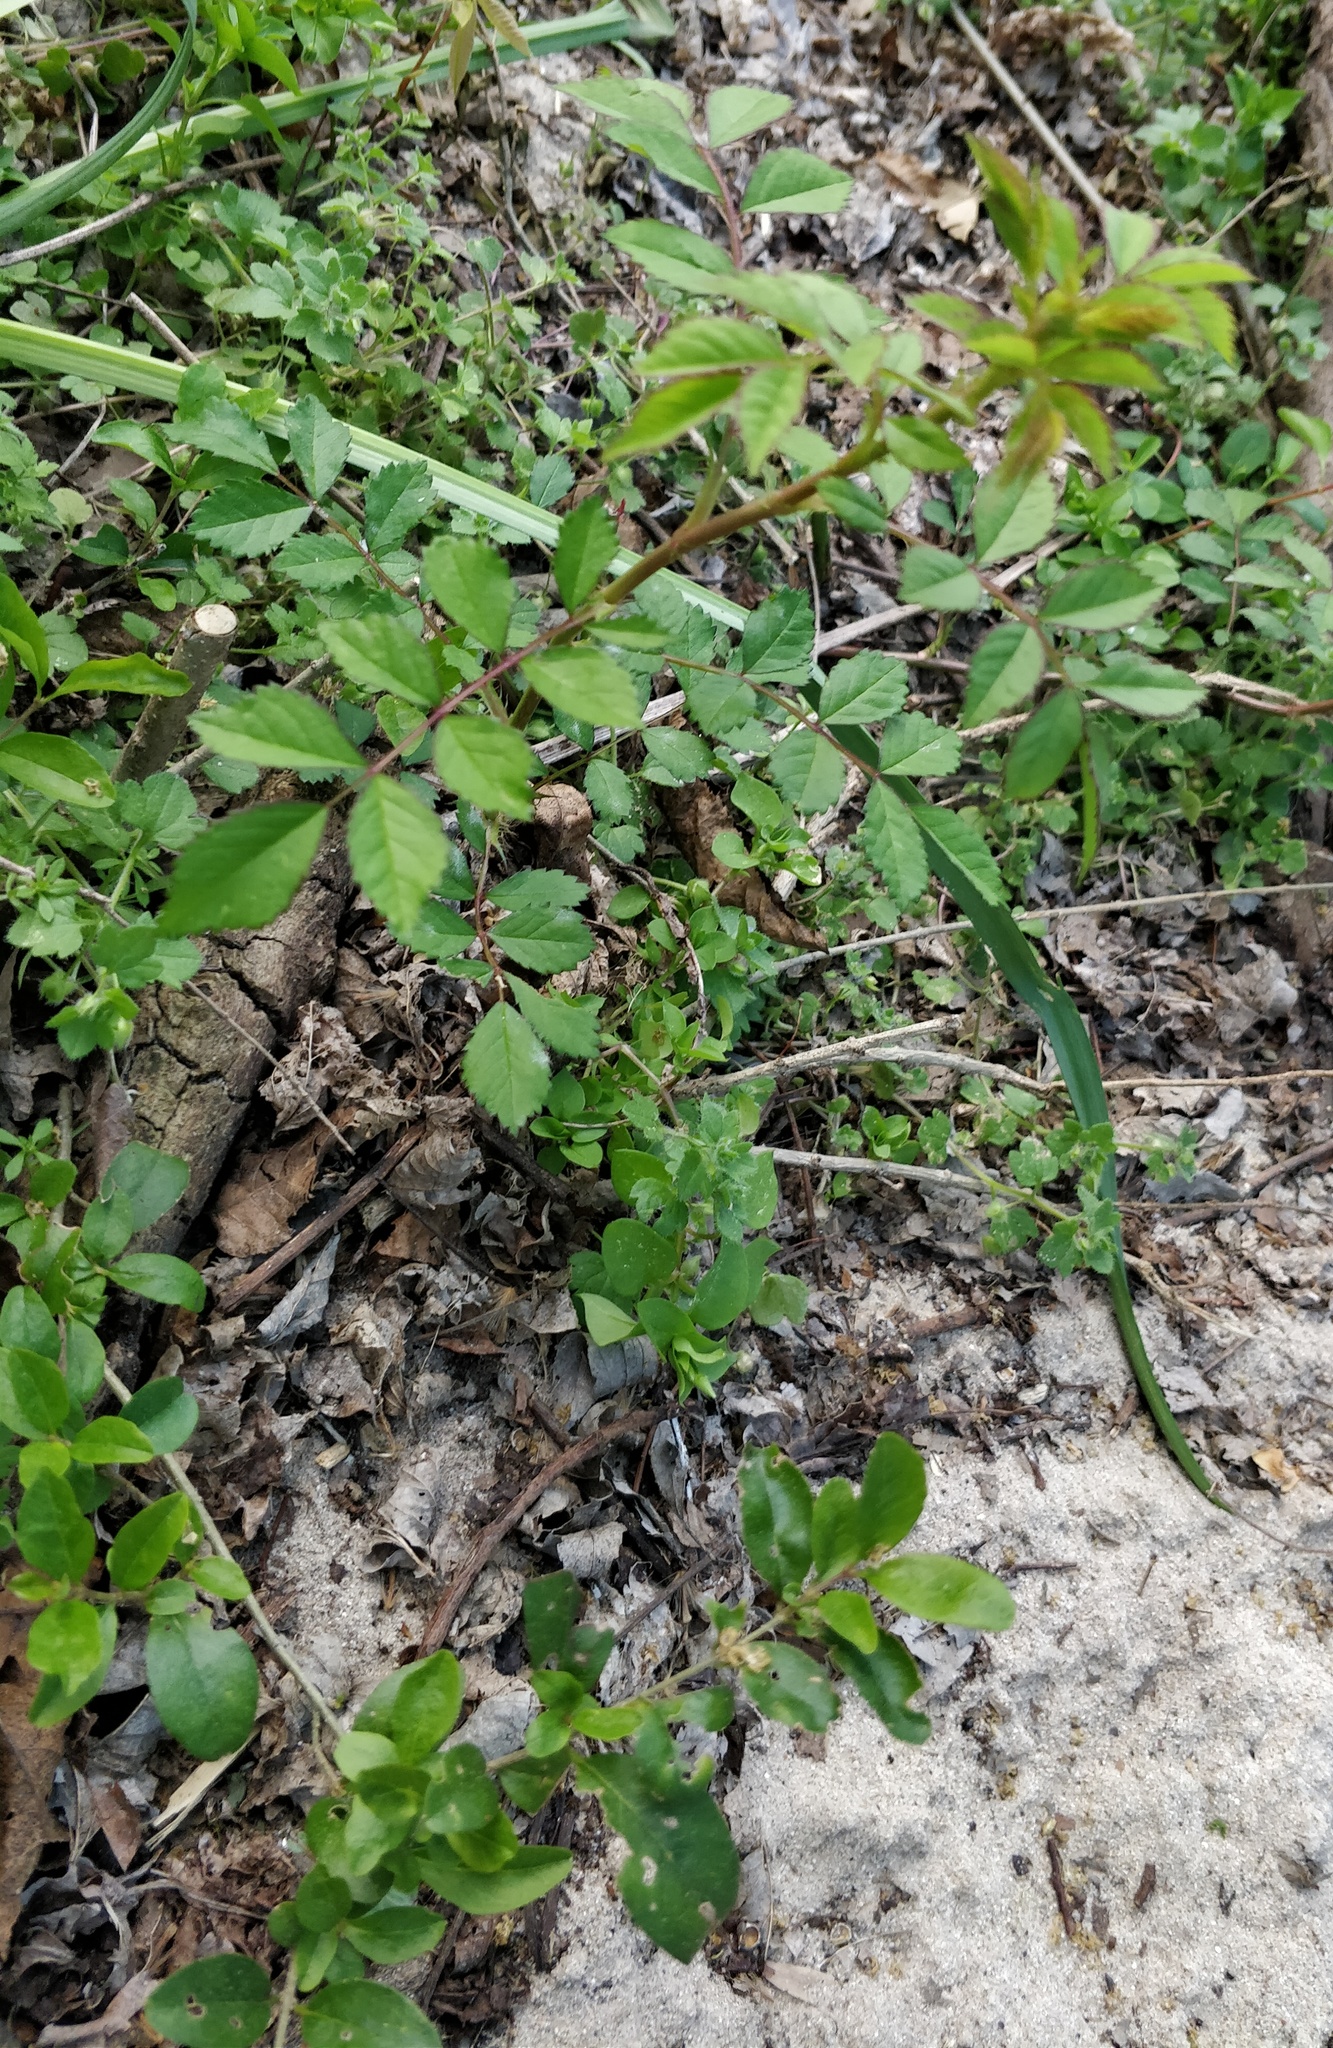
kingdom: Plantae
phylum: Tracheophyta
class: Magnoliopsida
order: Rosales
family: Rosaceae
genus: Rosa
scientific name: Rosa multiflora
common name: Multiflora rose
